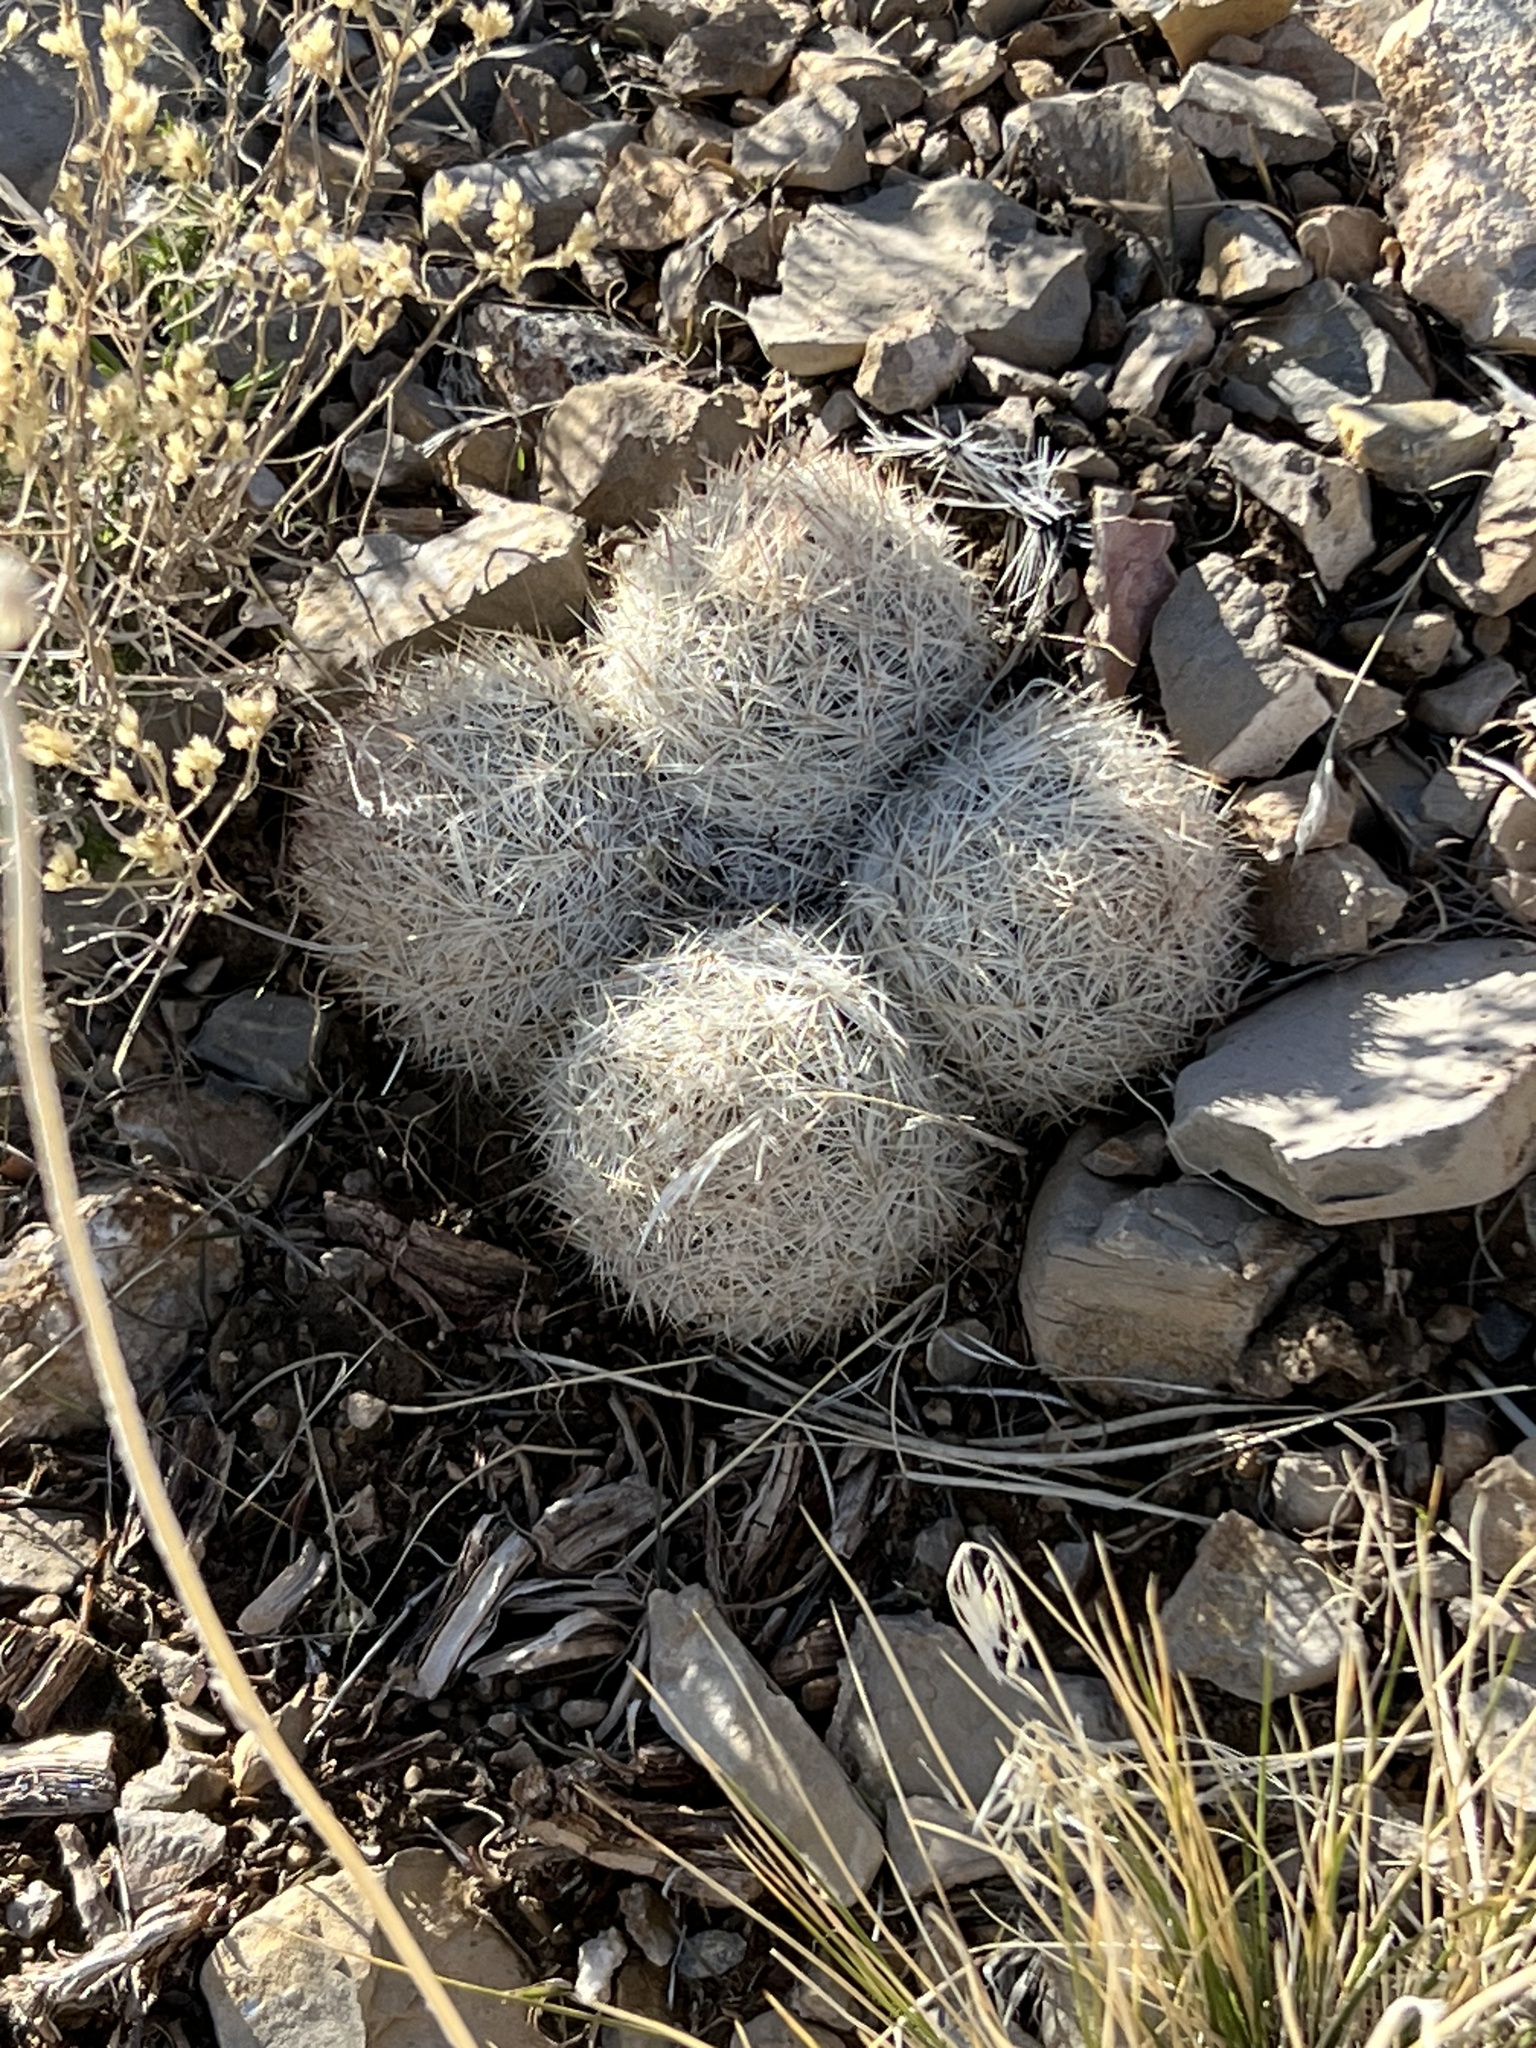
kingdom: Plantae
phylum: Tracheophyta
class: Magnoliopsida
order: Caryophyllales
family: Cactaceae
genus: Pelecyphora
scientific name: Pelecyphora dasyacantha
